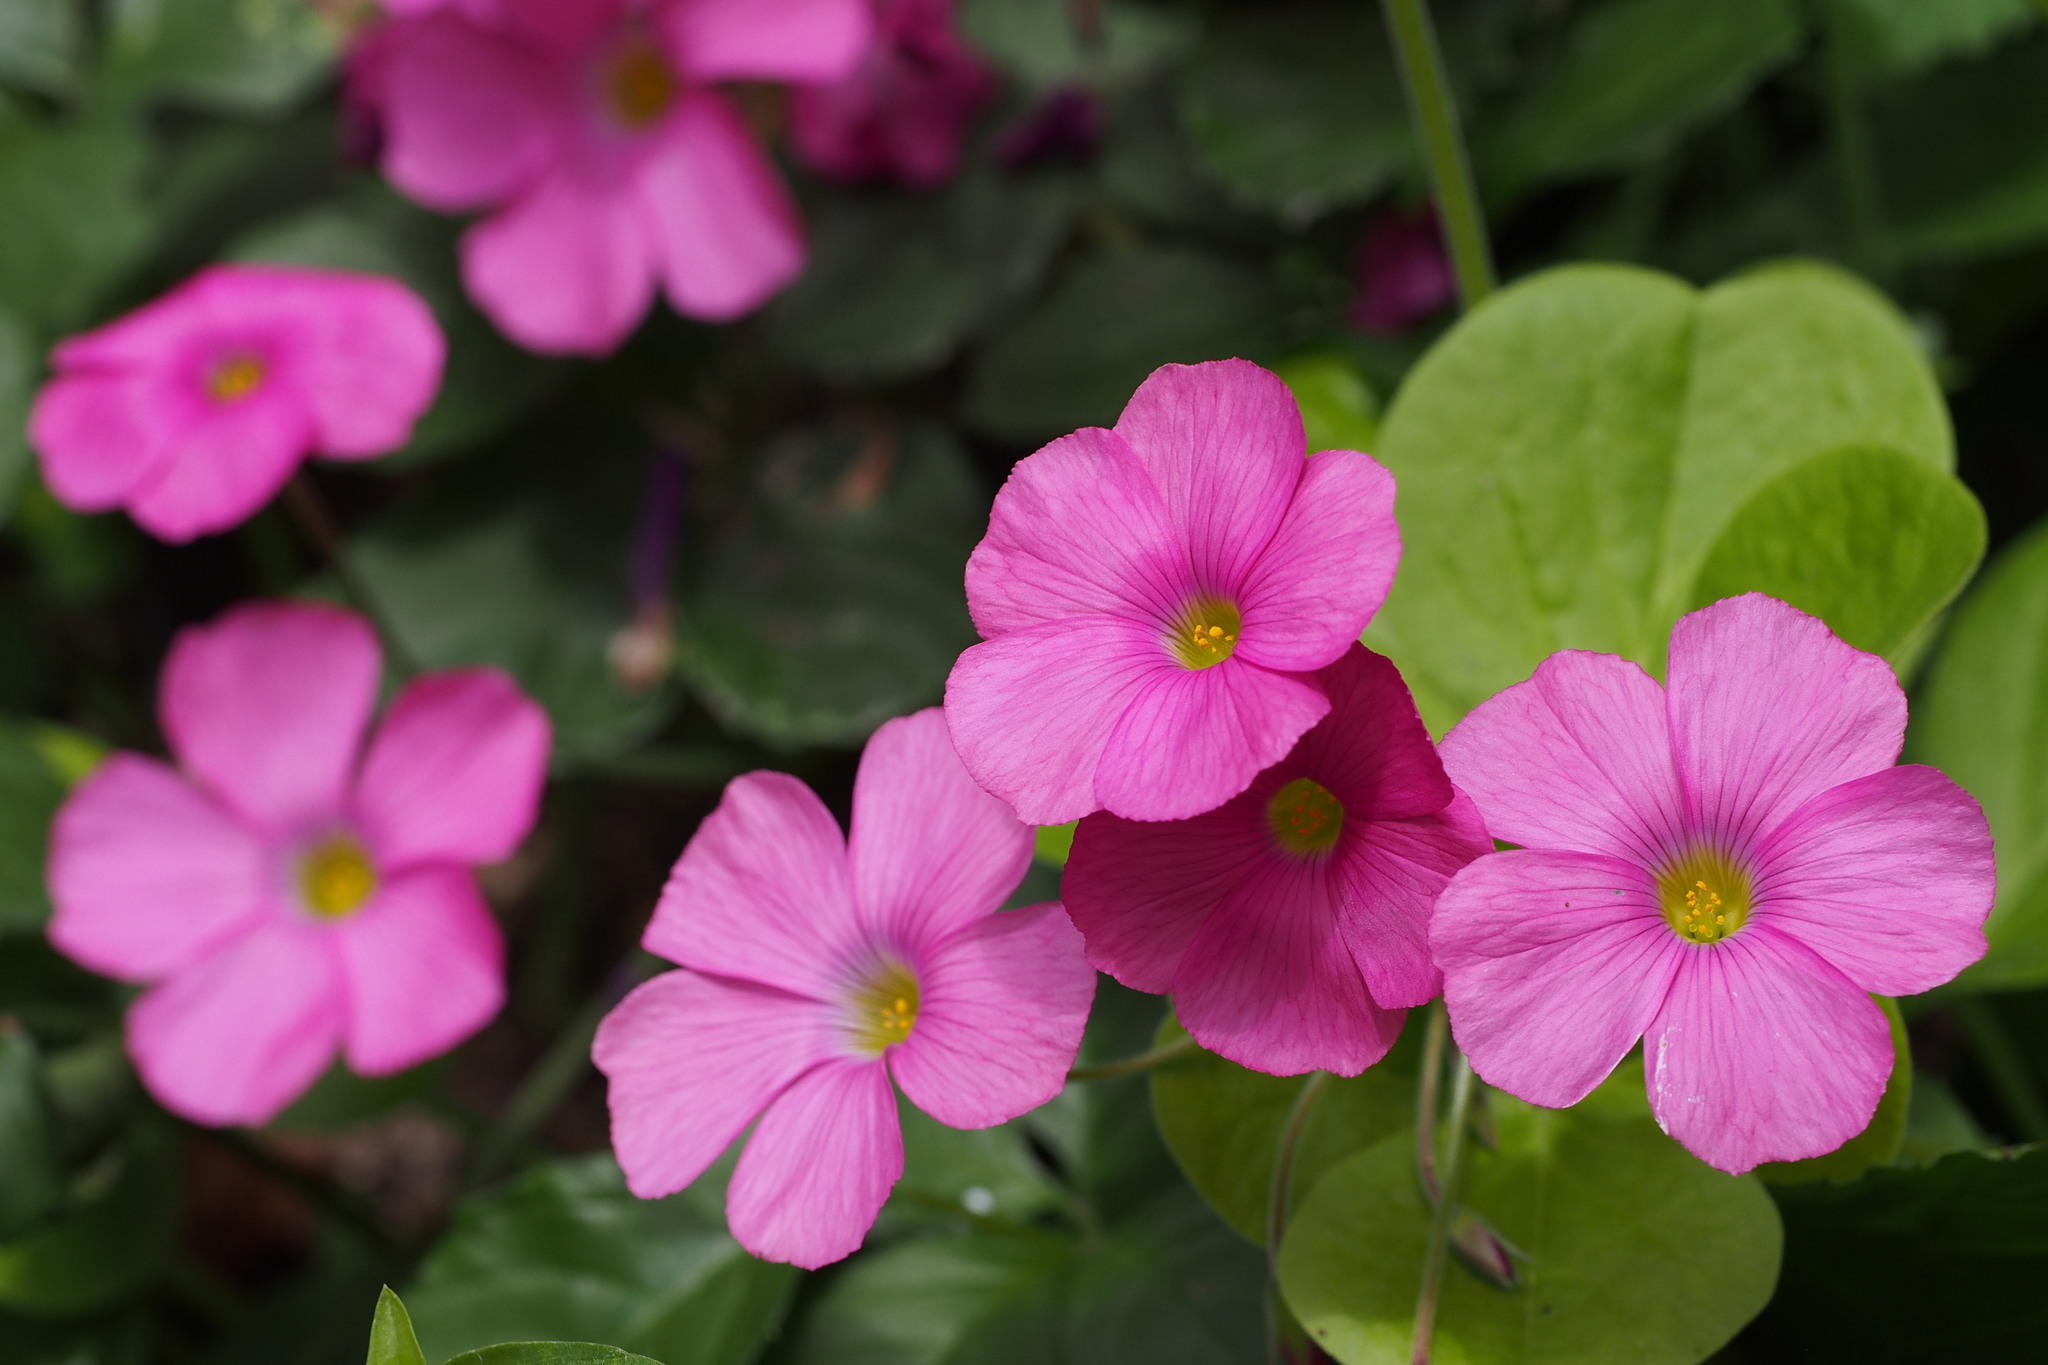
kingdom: Plantae
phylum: Tracheophyta
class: Magnoliopsida
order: Oxalidales
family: Oxalidaceae
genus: Oxalis
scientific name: Oxalis bowiei
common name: Bowie's wood-sorrel
